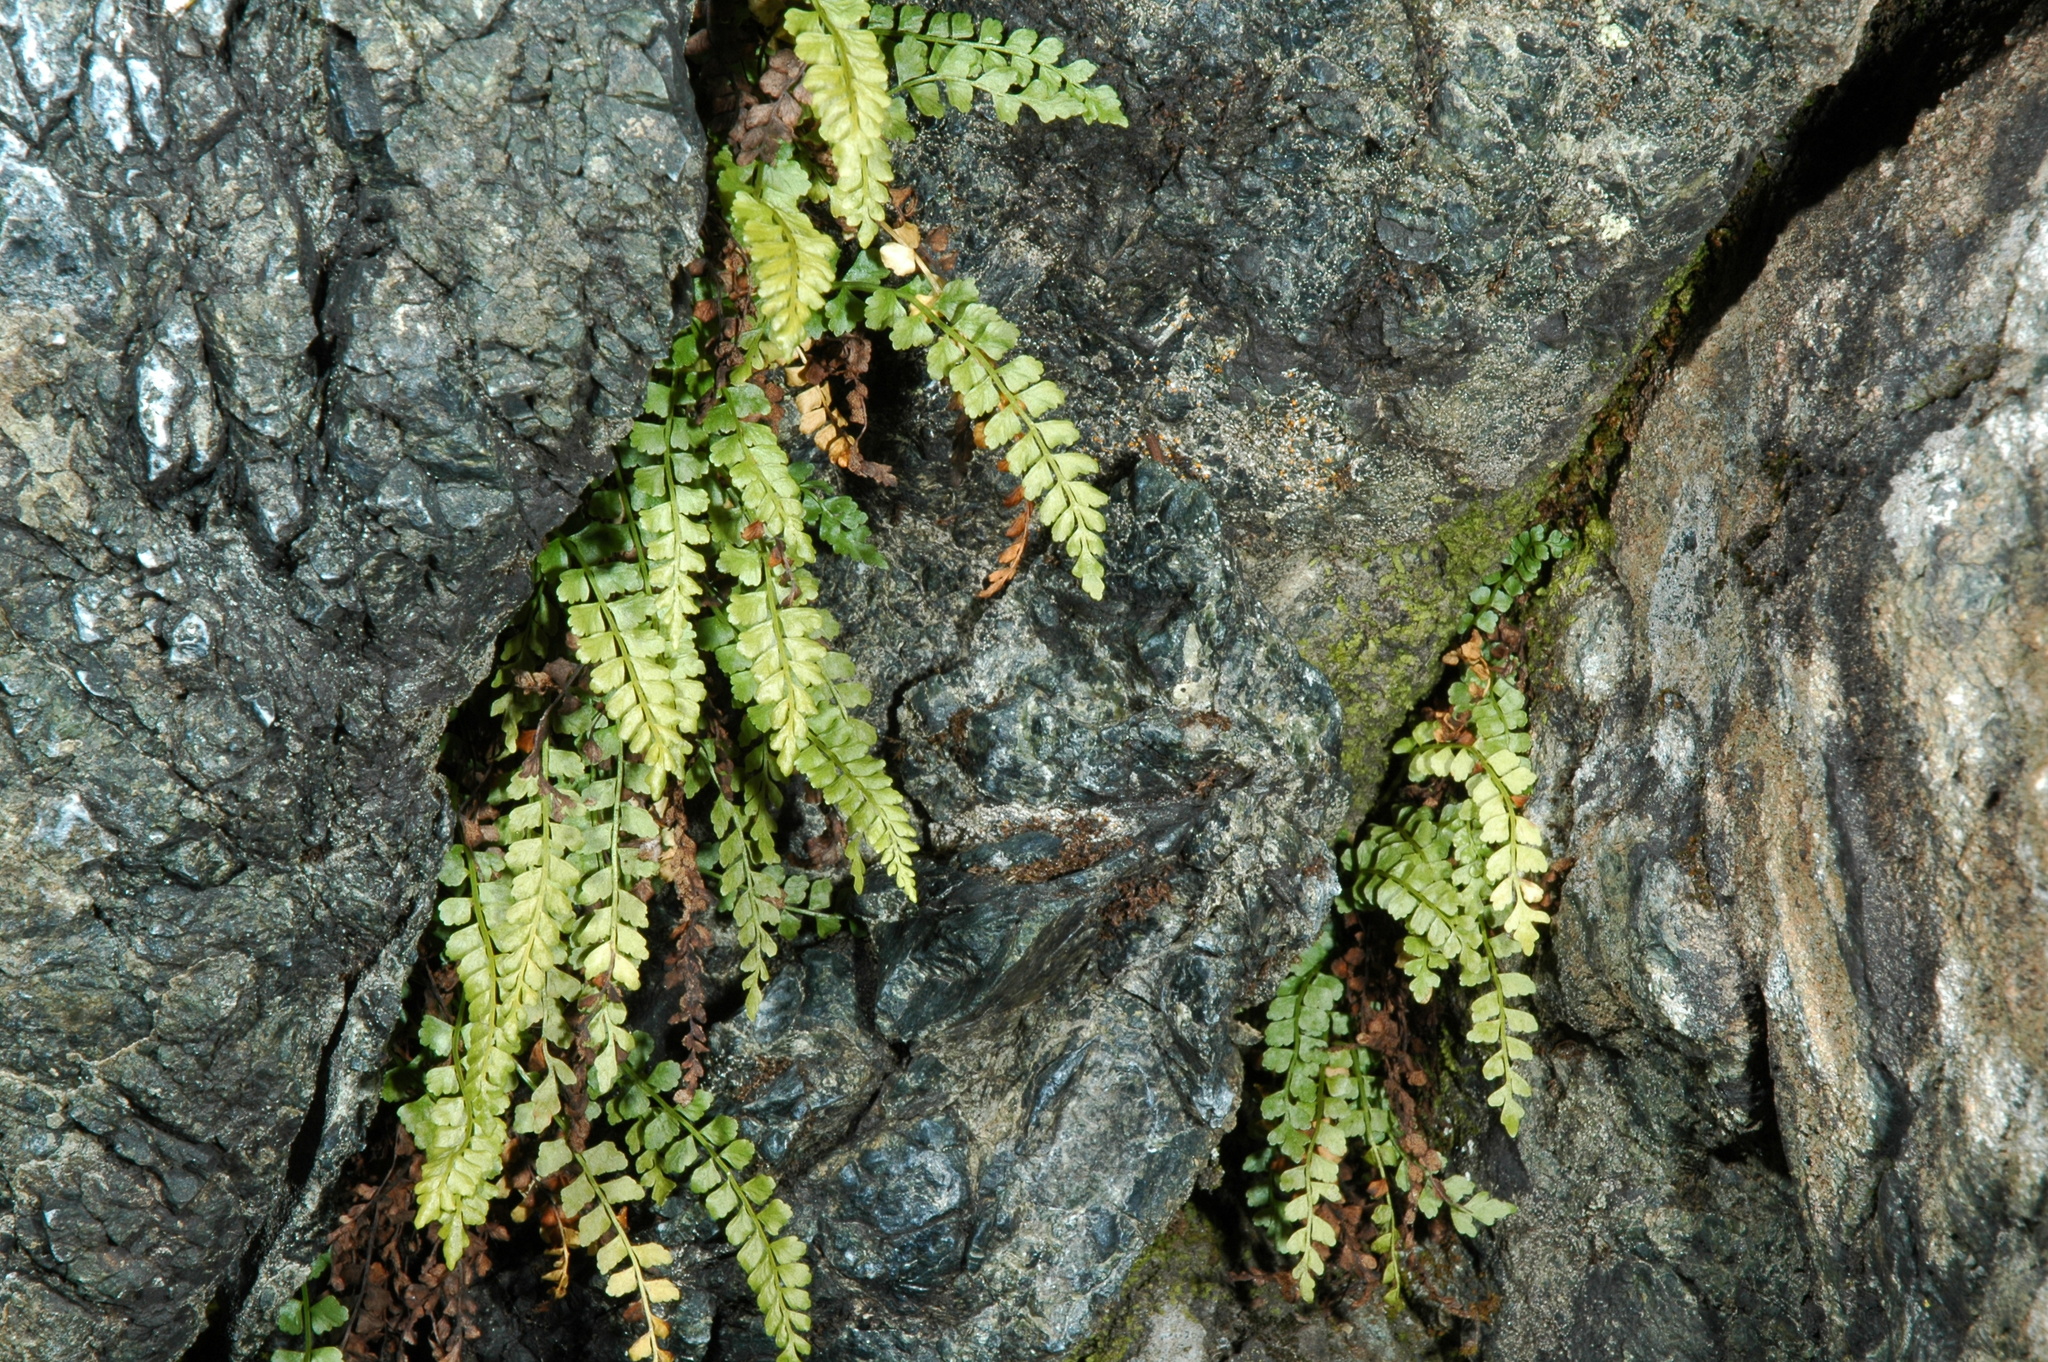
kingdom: Plantae
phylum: Tracheophyta
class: Polypodiopsida
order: Polypodiales
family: Aspleniaceae
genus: Asplenium
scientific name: Asplenium viride
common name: Green spleenwort
